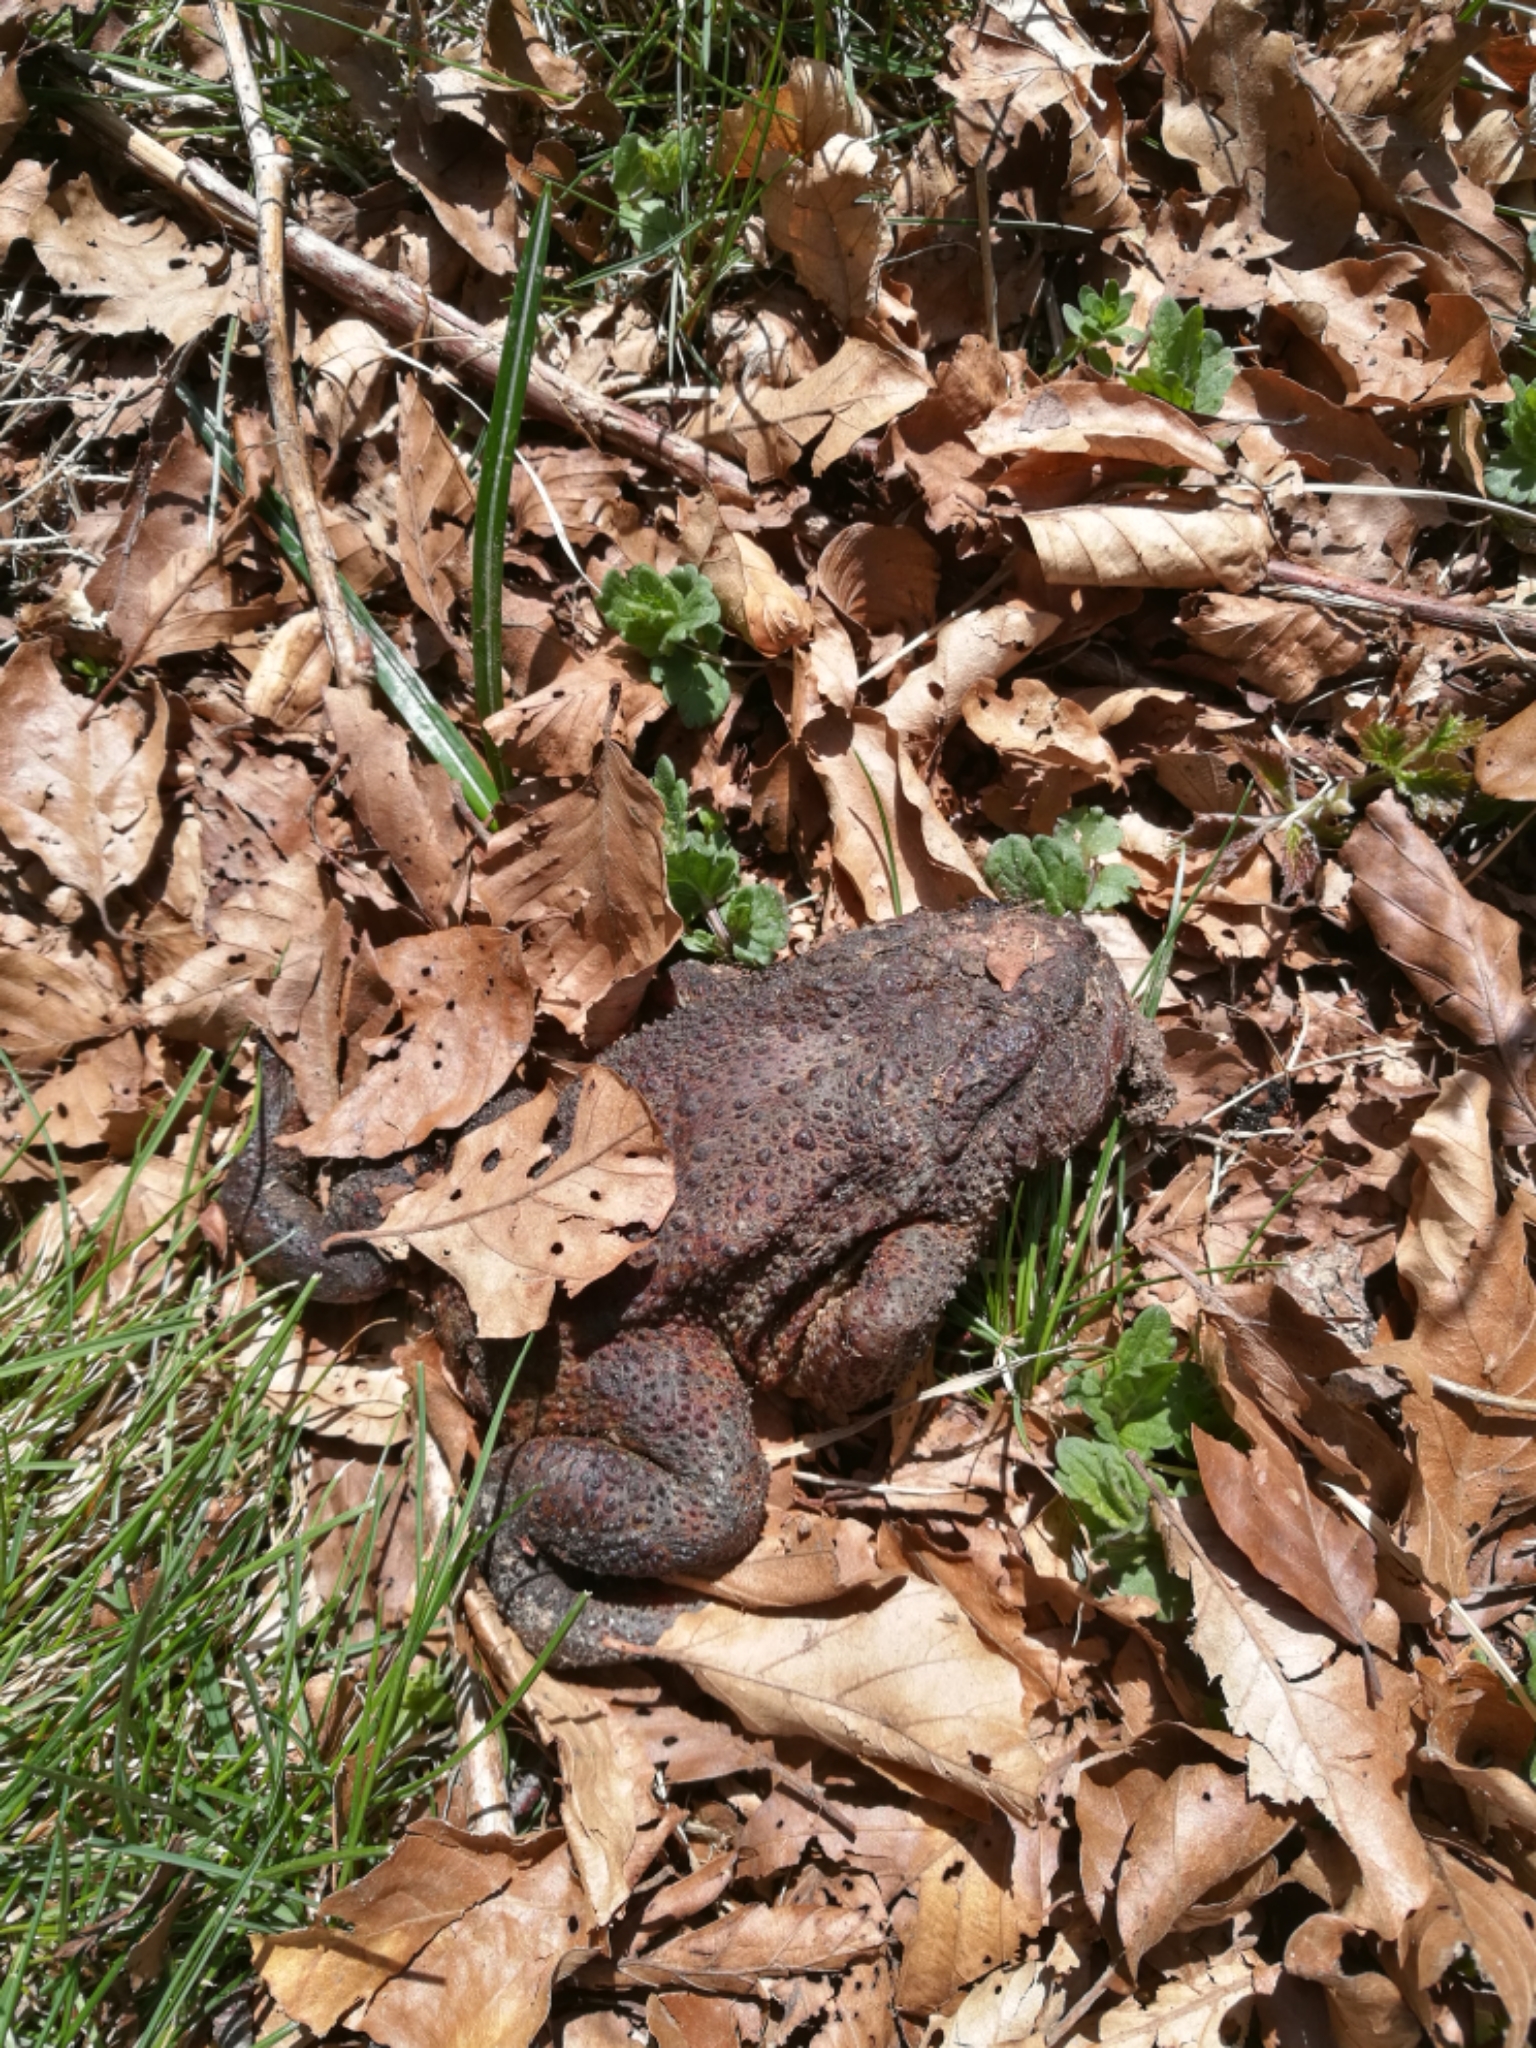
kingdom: Animalia
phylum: Chordata
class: Amphibia
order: Anura
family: Bufonidae
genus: Bufo
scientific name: Bufo bufo
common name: Common toad
